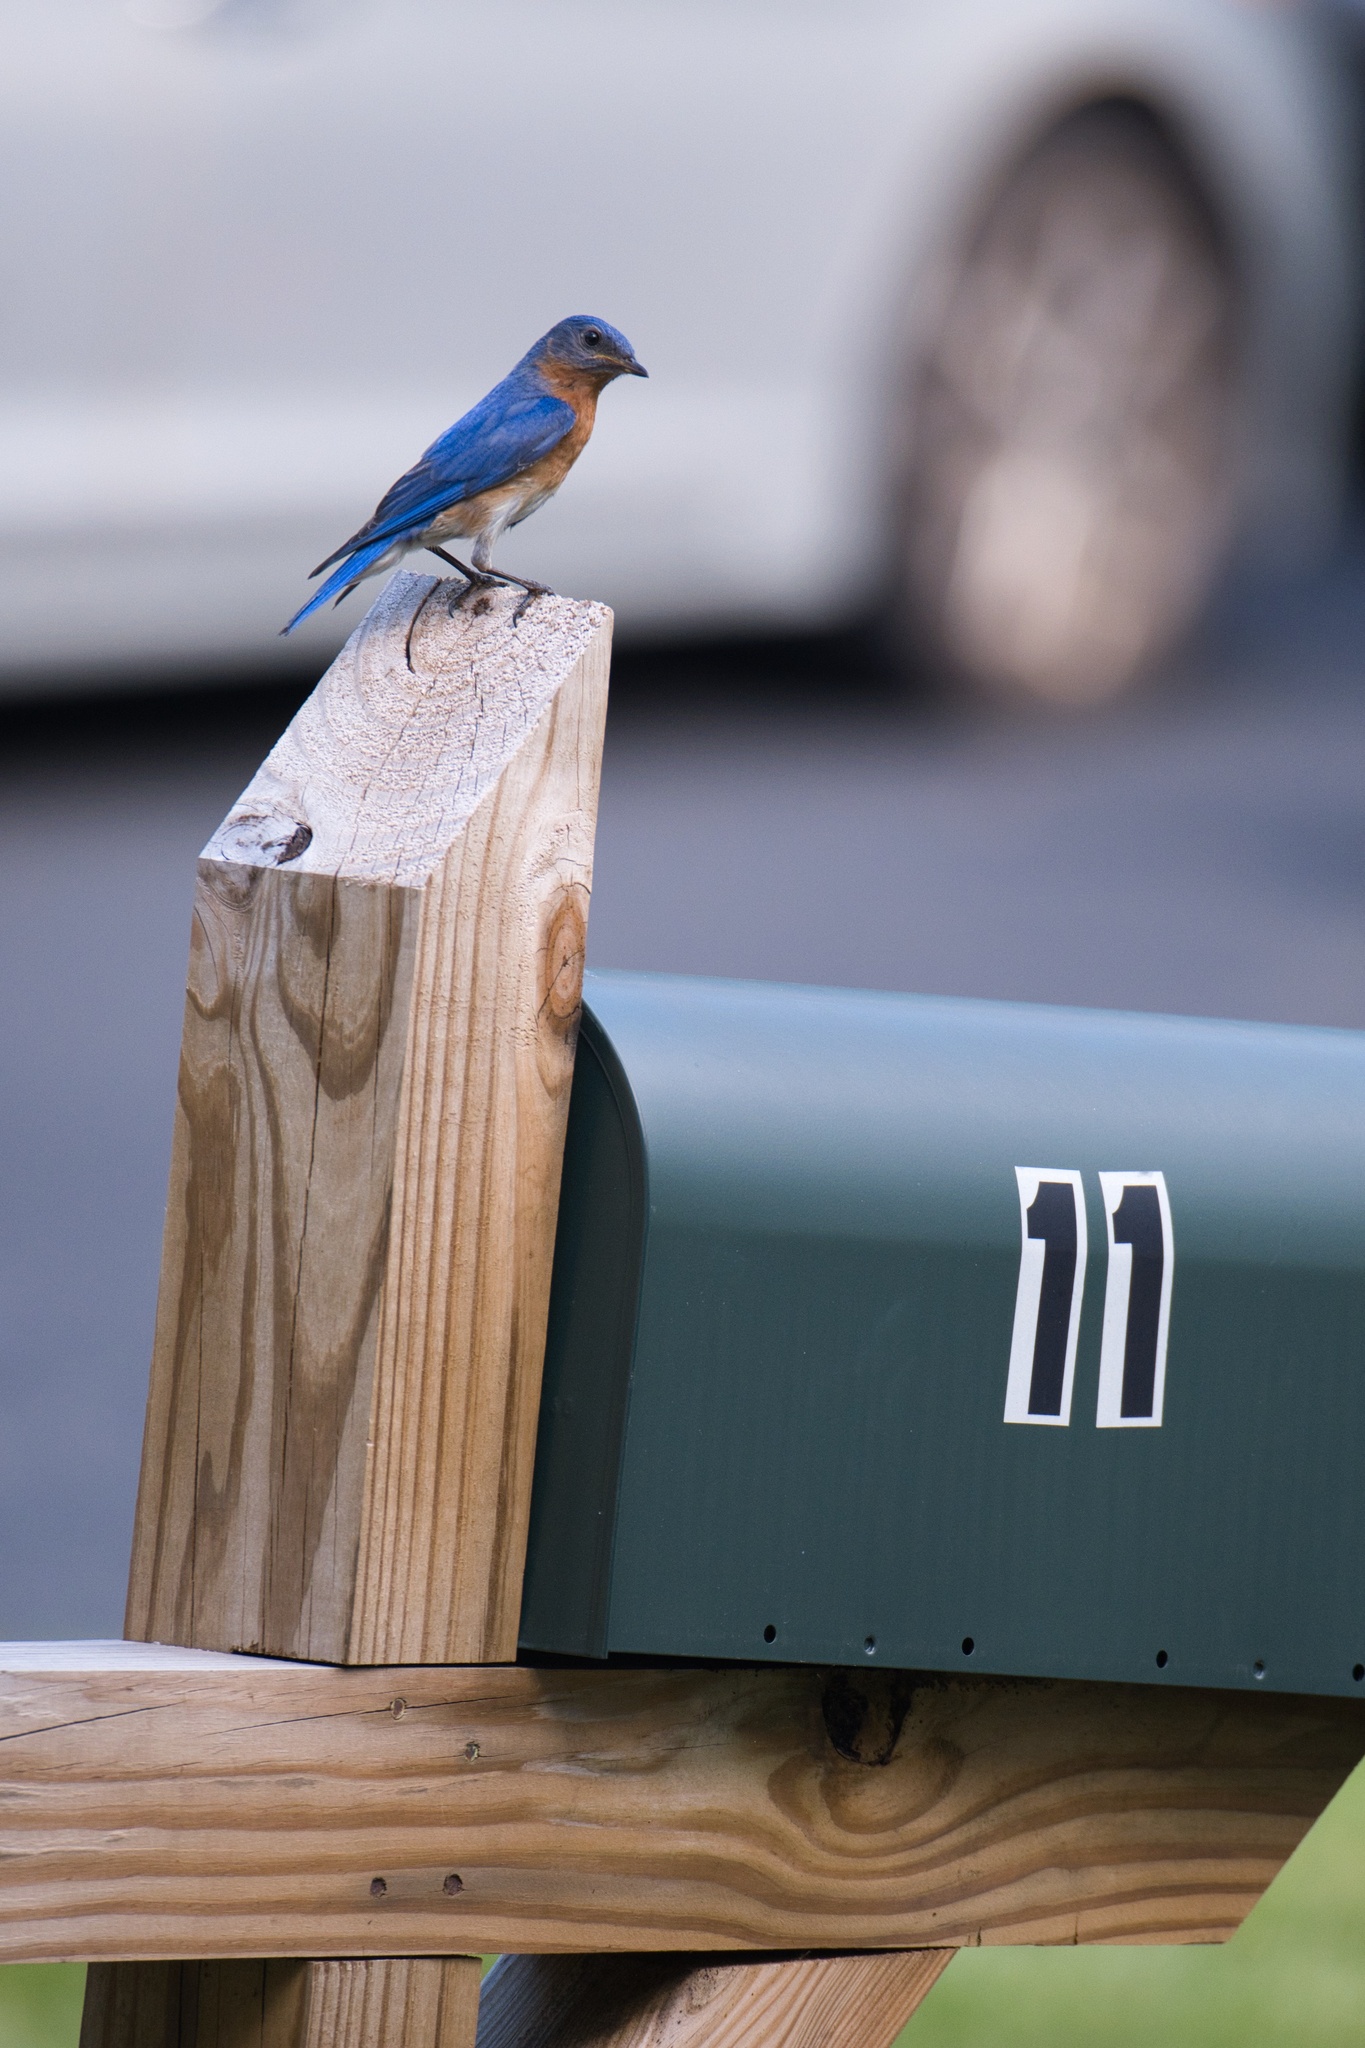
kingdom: Animalia
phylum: Chordata
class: Aves
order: Passeriformes
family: Turdidae
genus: Sialia
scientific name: Sialia sialis
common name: Eastern bluebird
